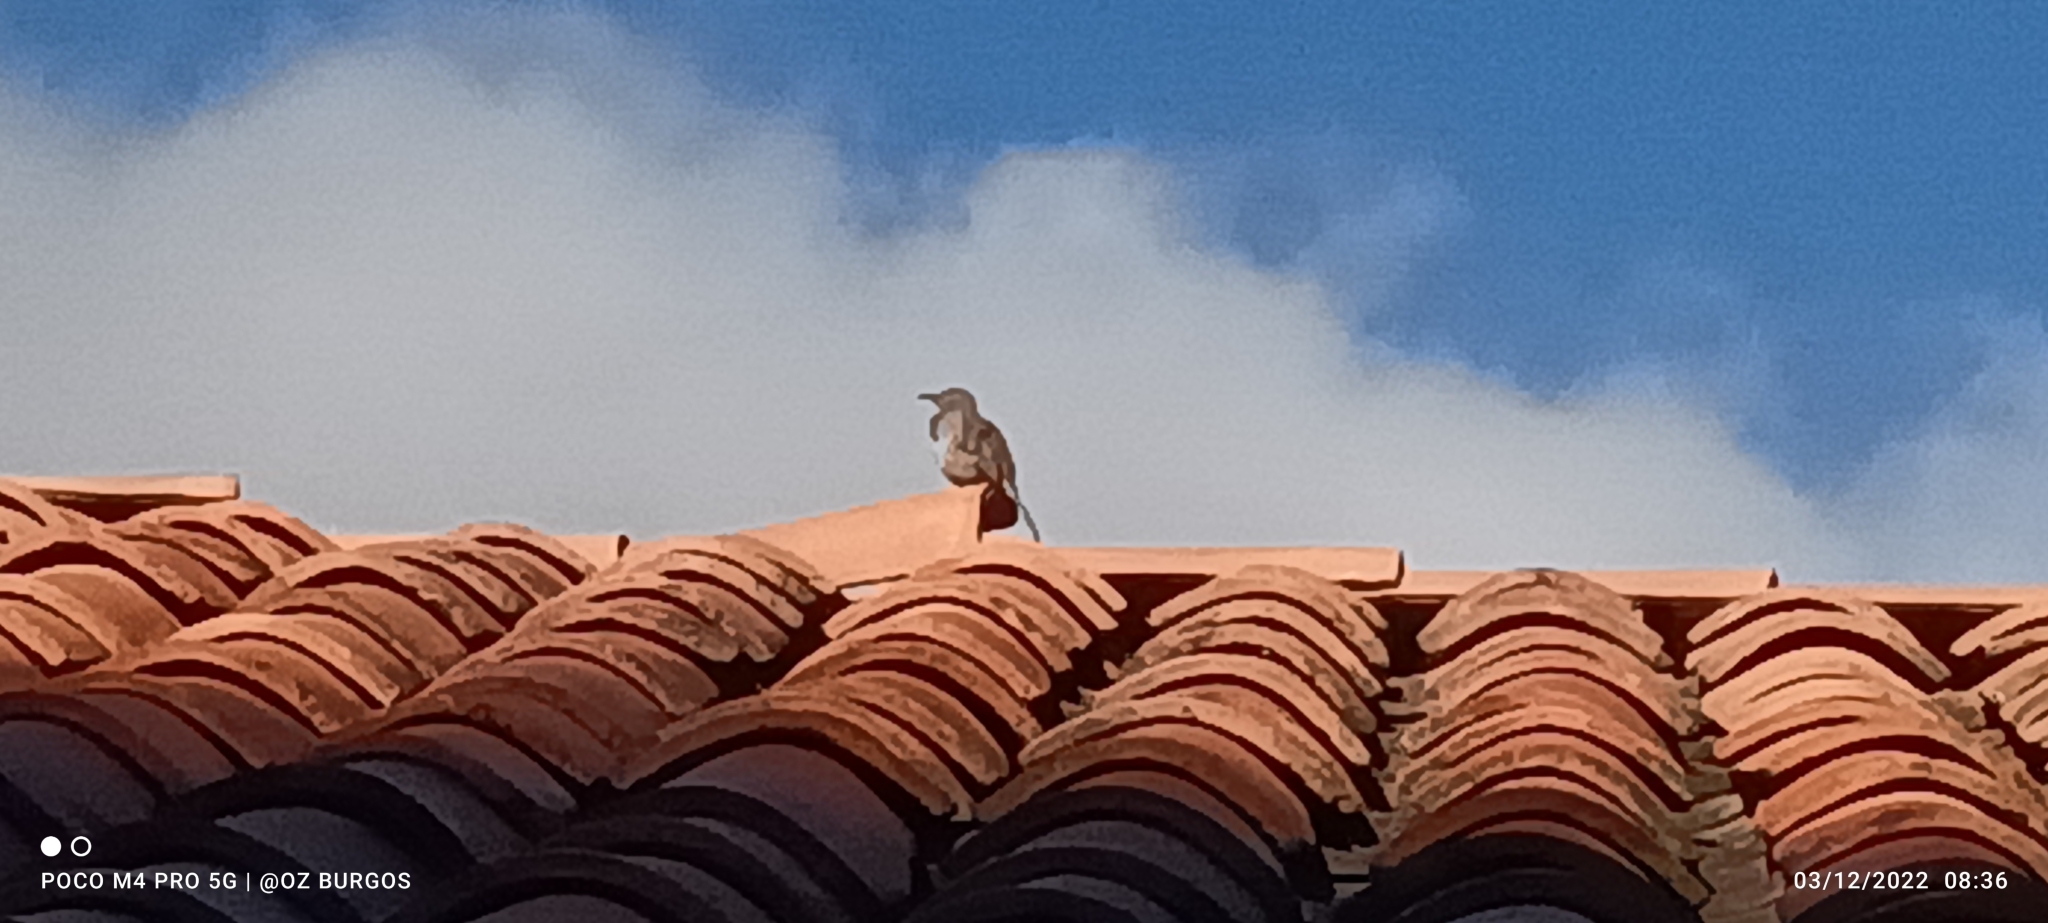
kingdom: Animalia
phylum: Chordata
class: Aves
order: Passeriformes
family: Mimidae
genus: Toxostoma
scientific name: Toxostoma curvirostre
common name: Curve-billed thrasher
